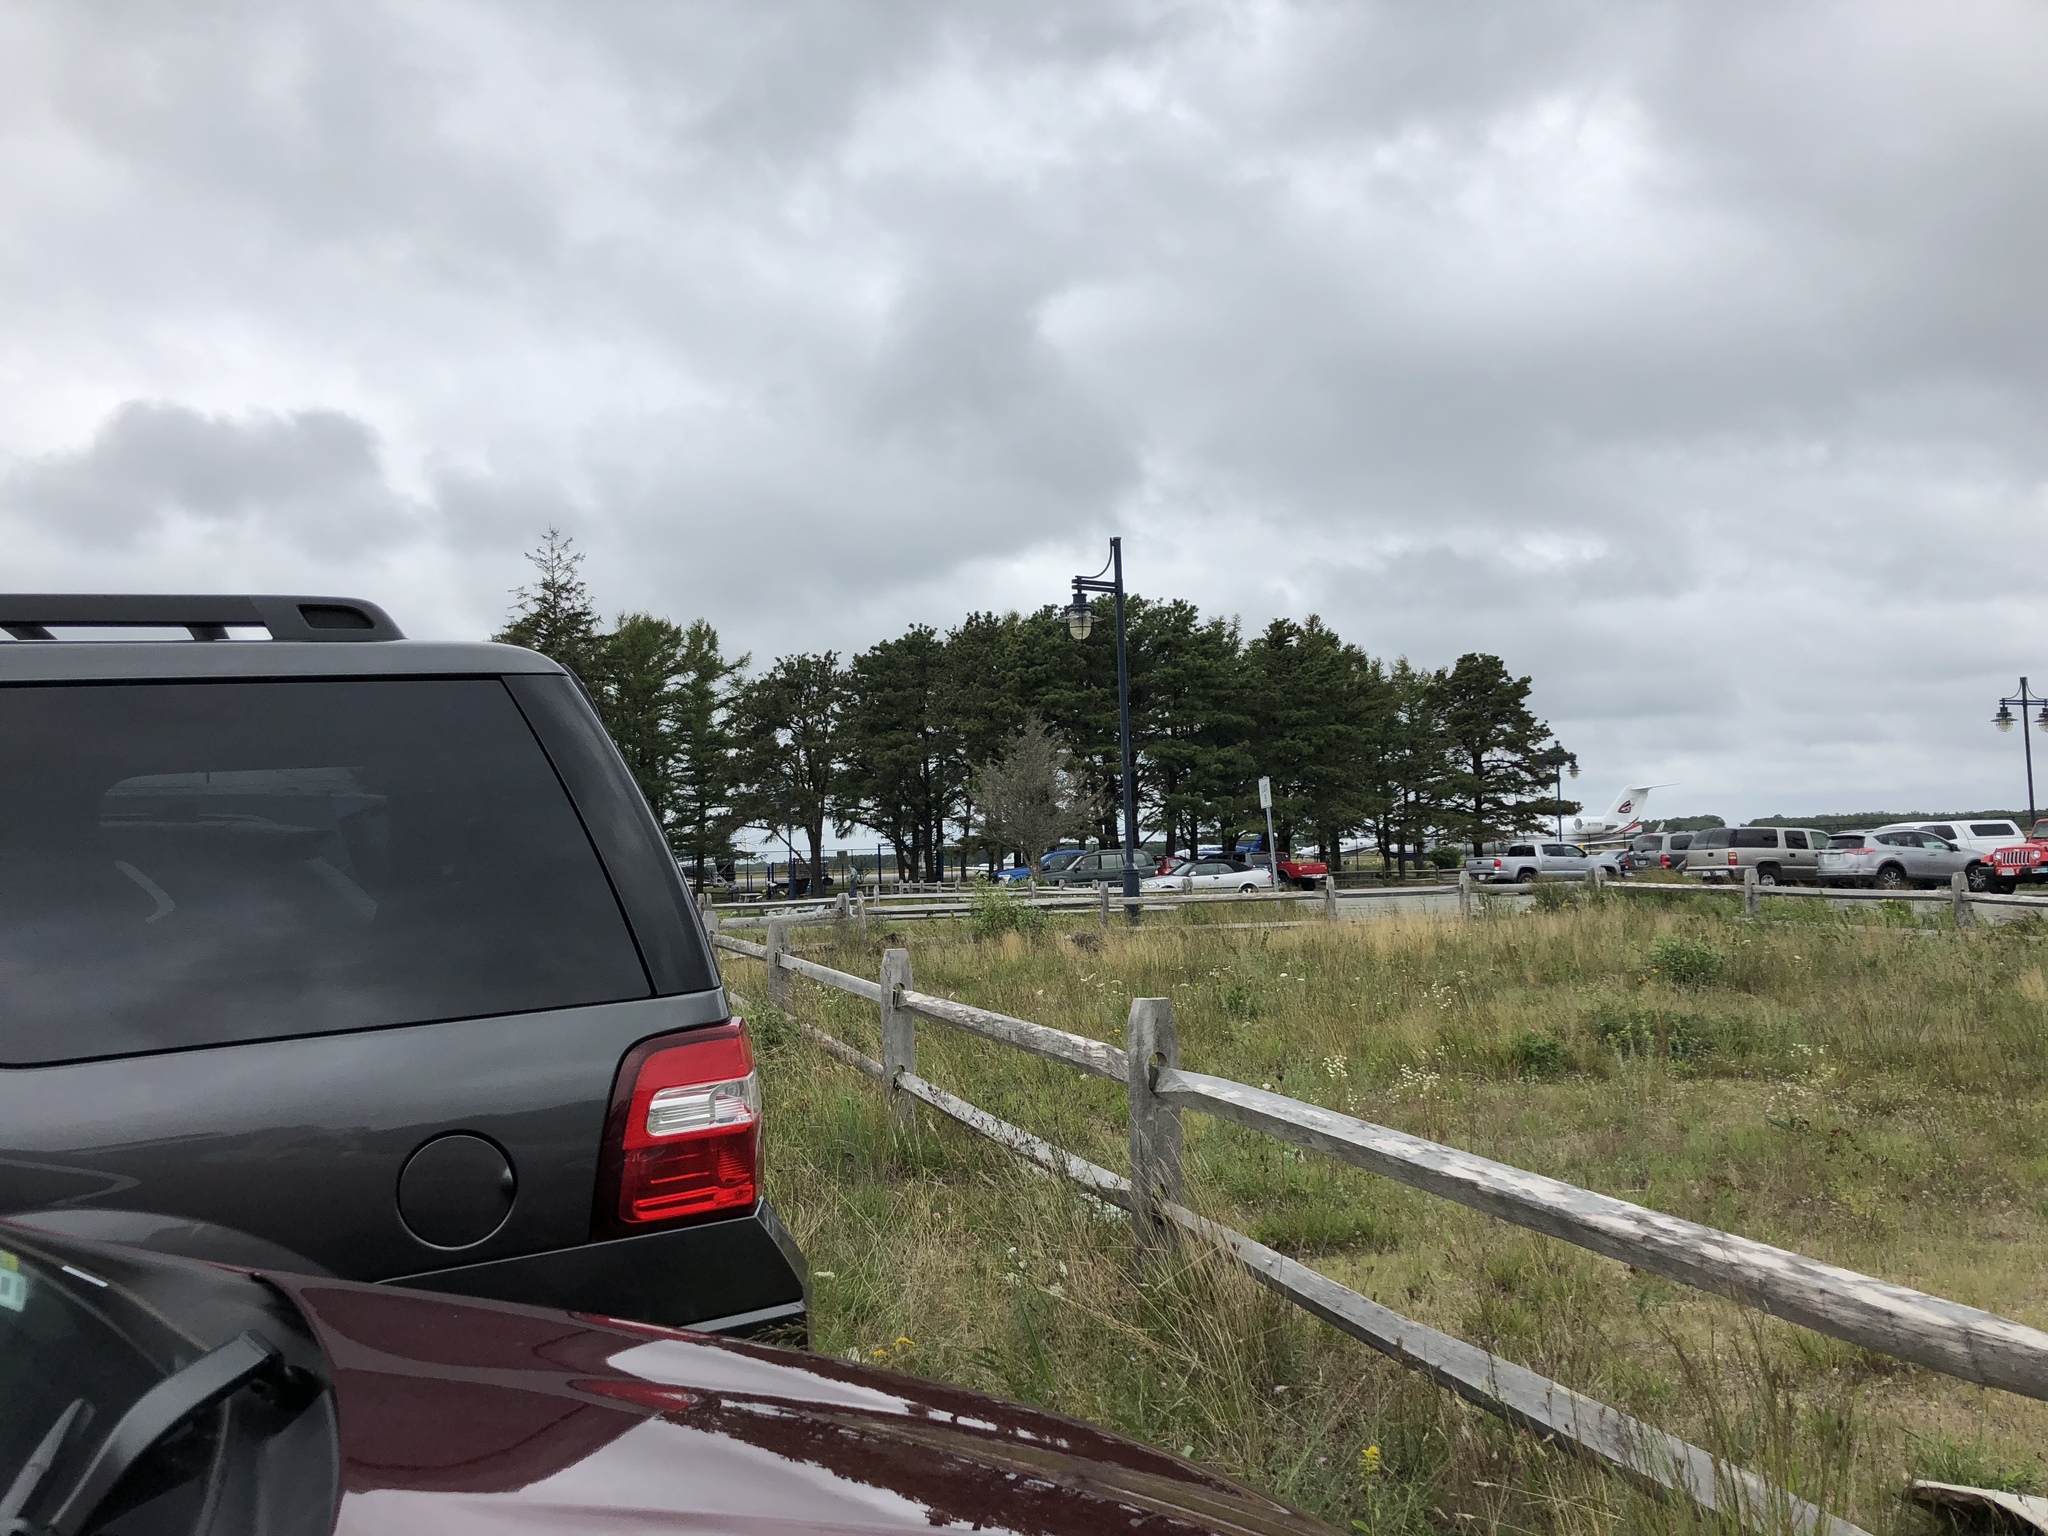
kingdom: Animalia
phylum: Chordata
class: Aves
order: Galliformes
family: Phasianidae
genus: Meleagris
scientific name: Meleagris gallopavo
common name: Wild turkey
